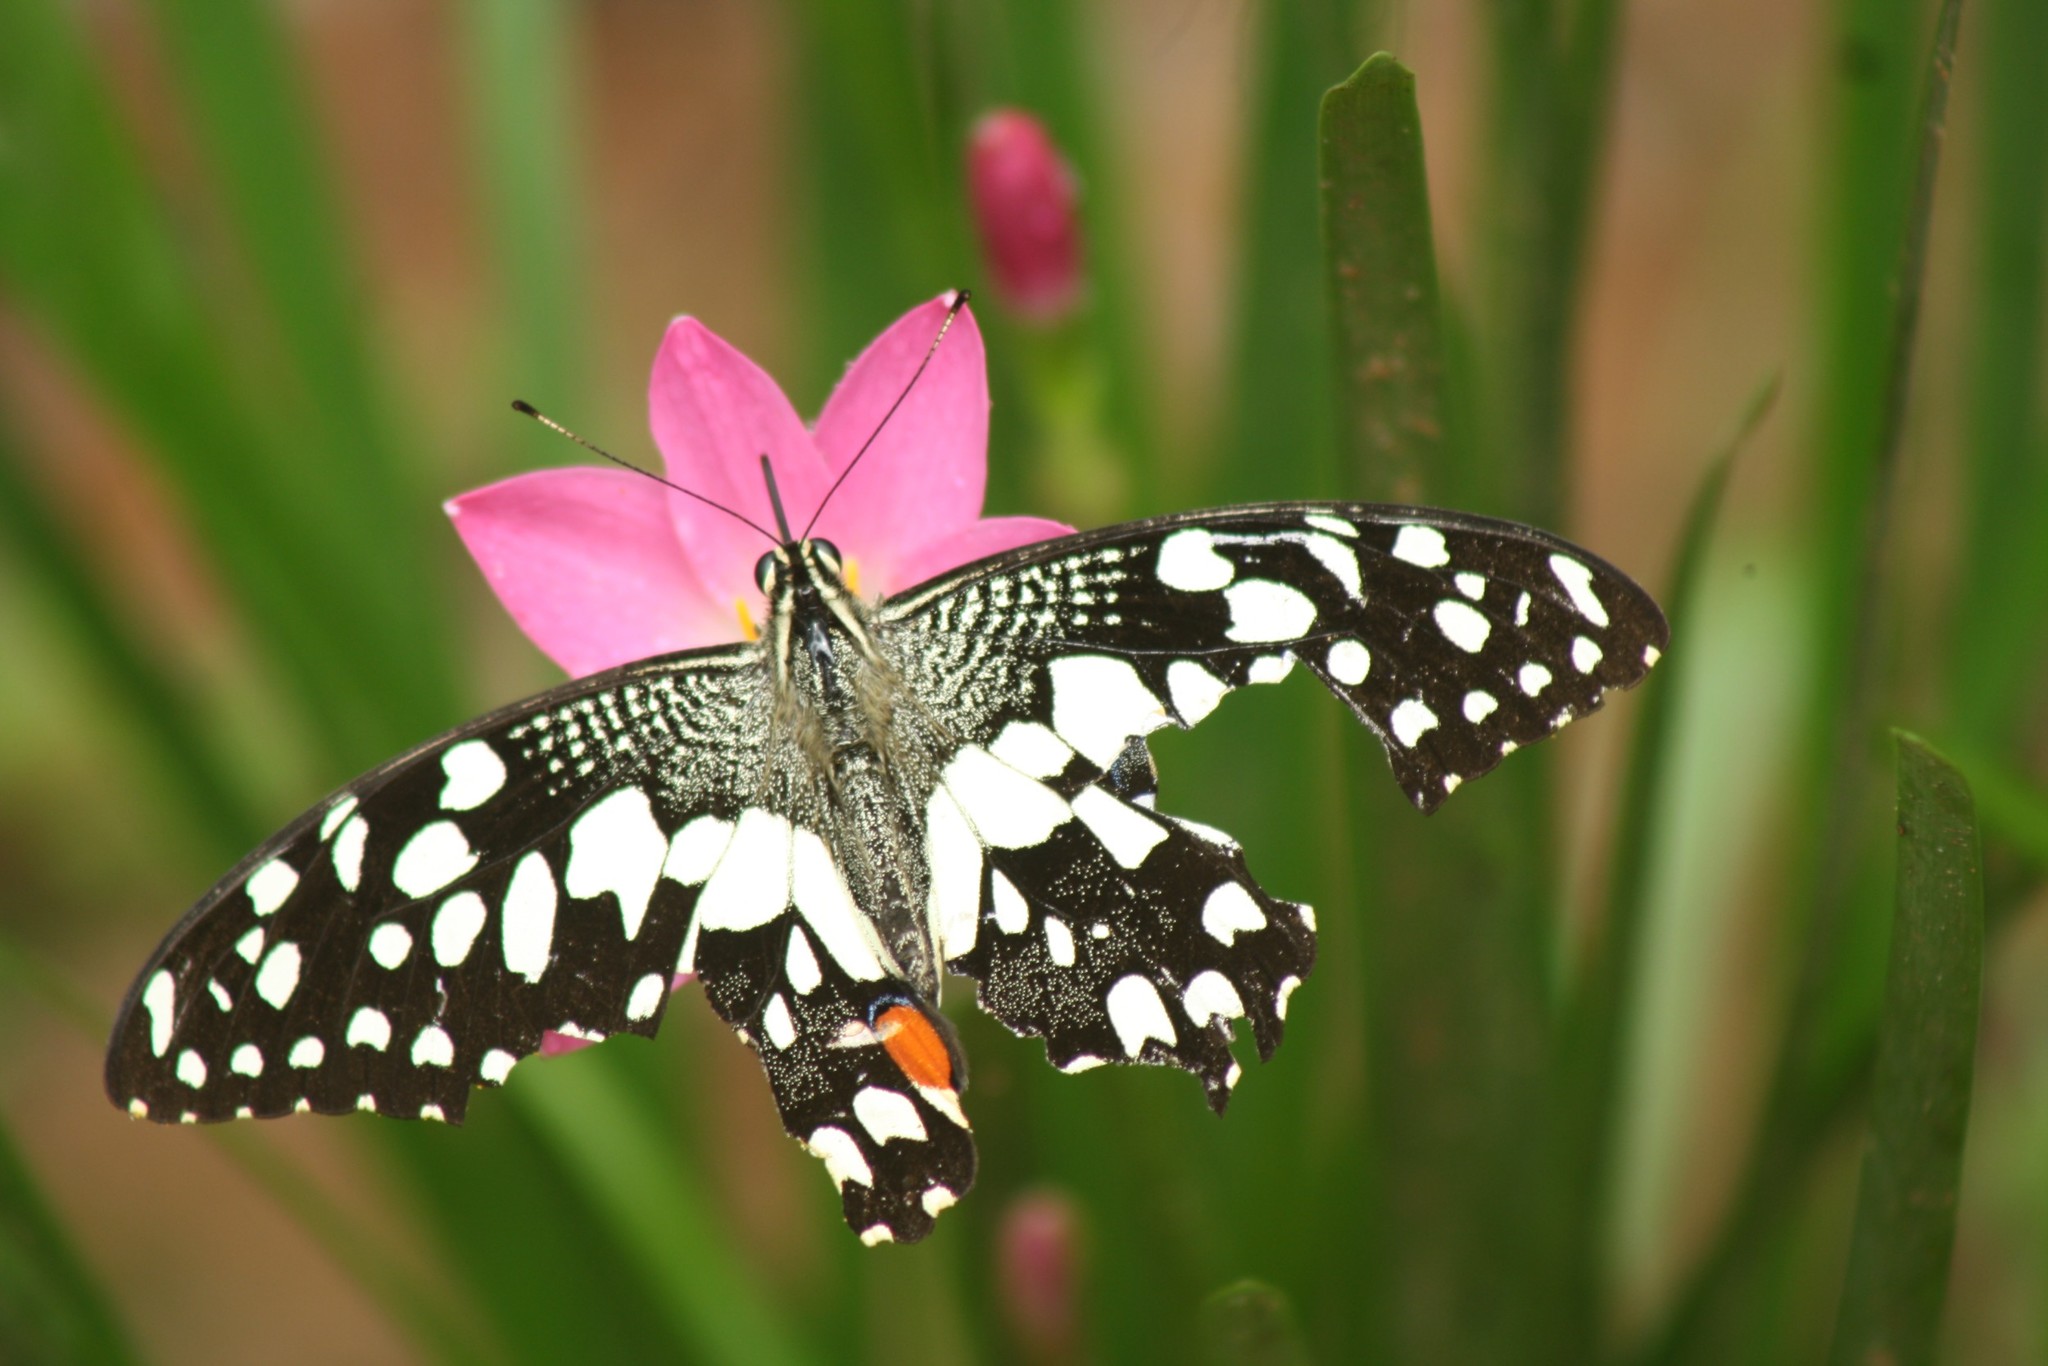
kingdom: Animalia
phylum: Arthropoda
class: Insecta
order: Lepidoptera
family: Papilionidae
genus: Papilio
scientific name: Papilio demoleus
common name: Lime butterfly
